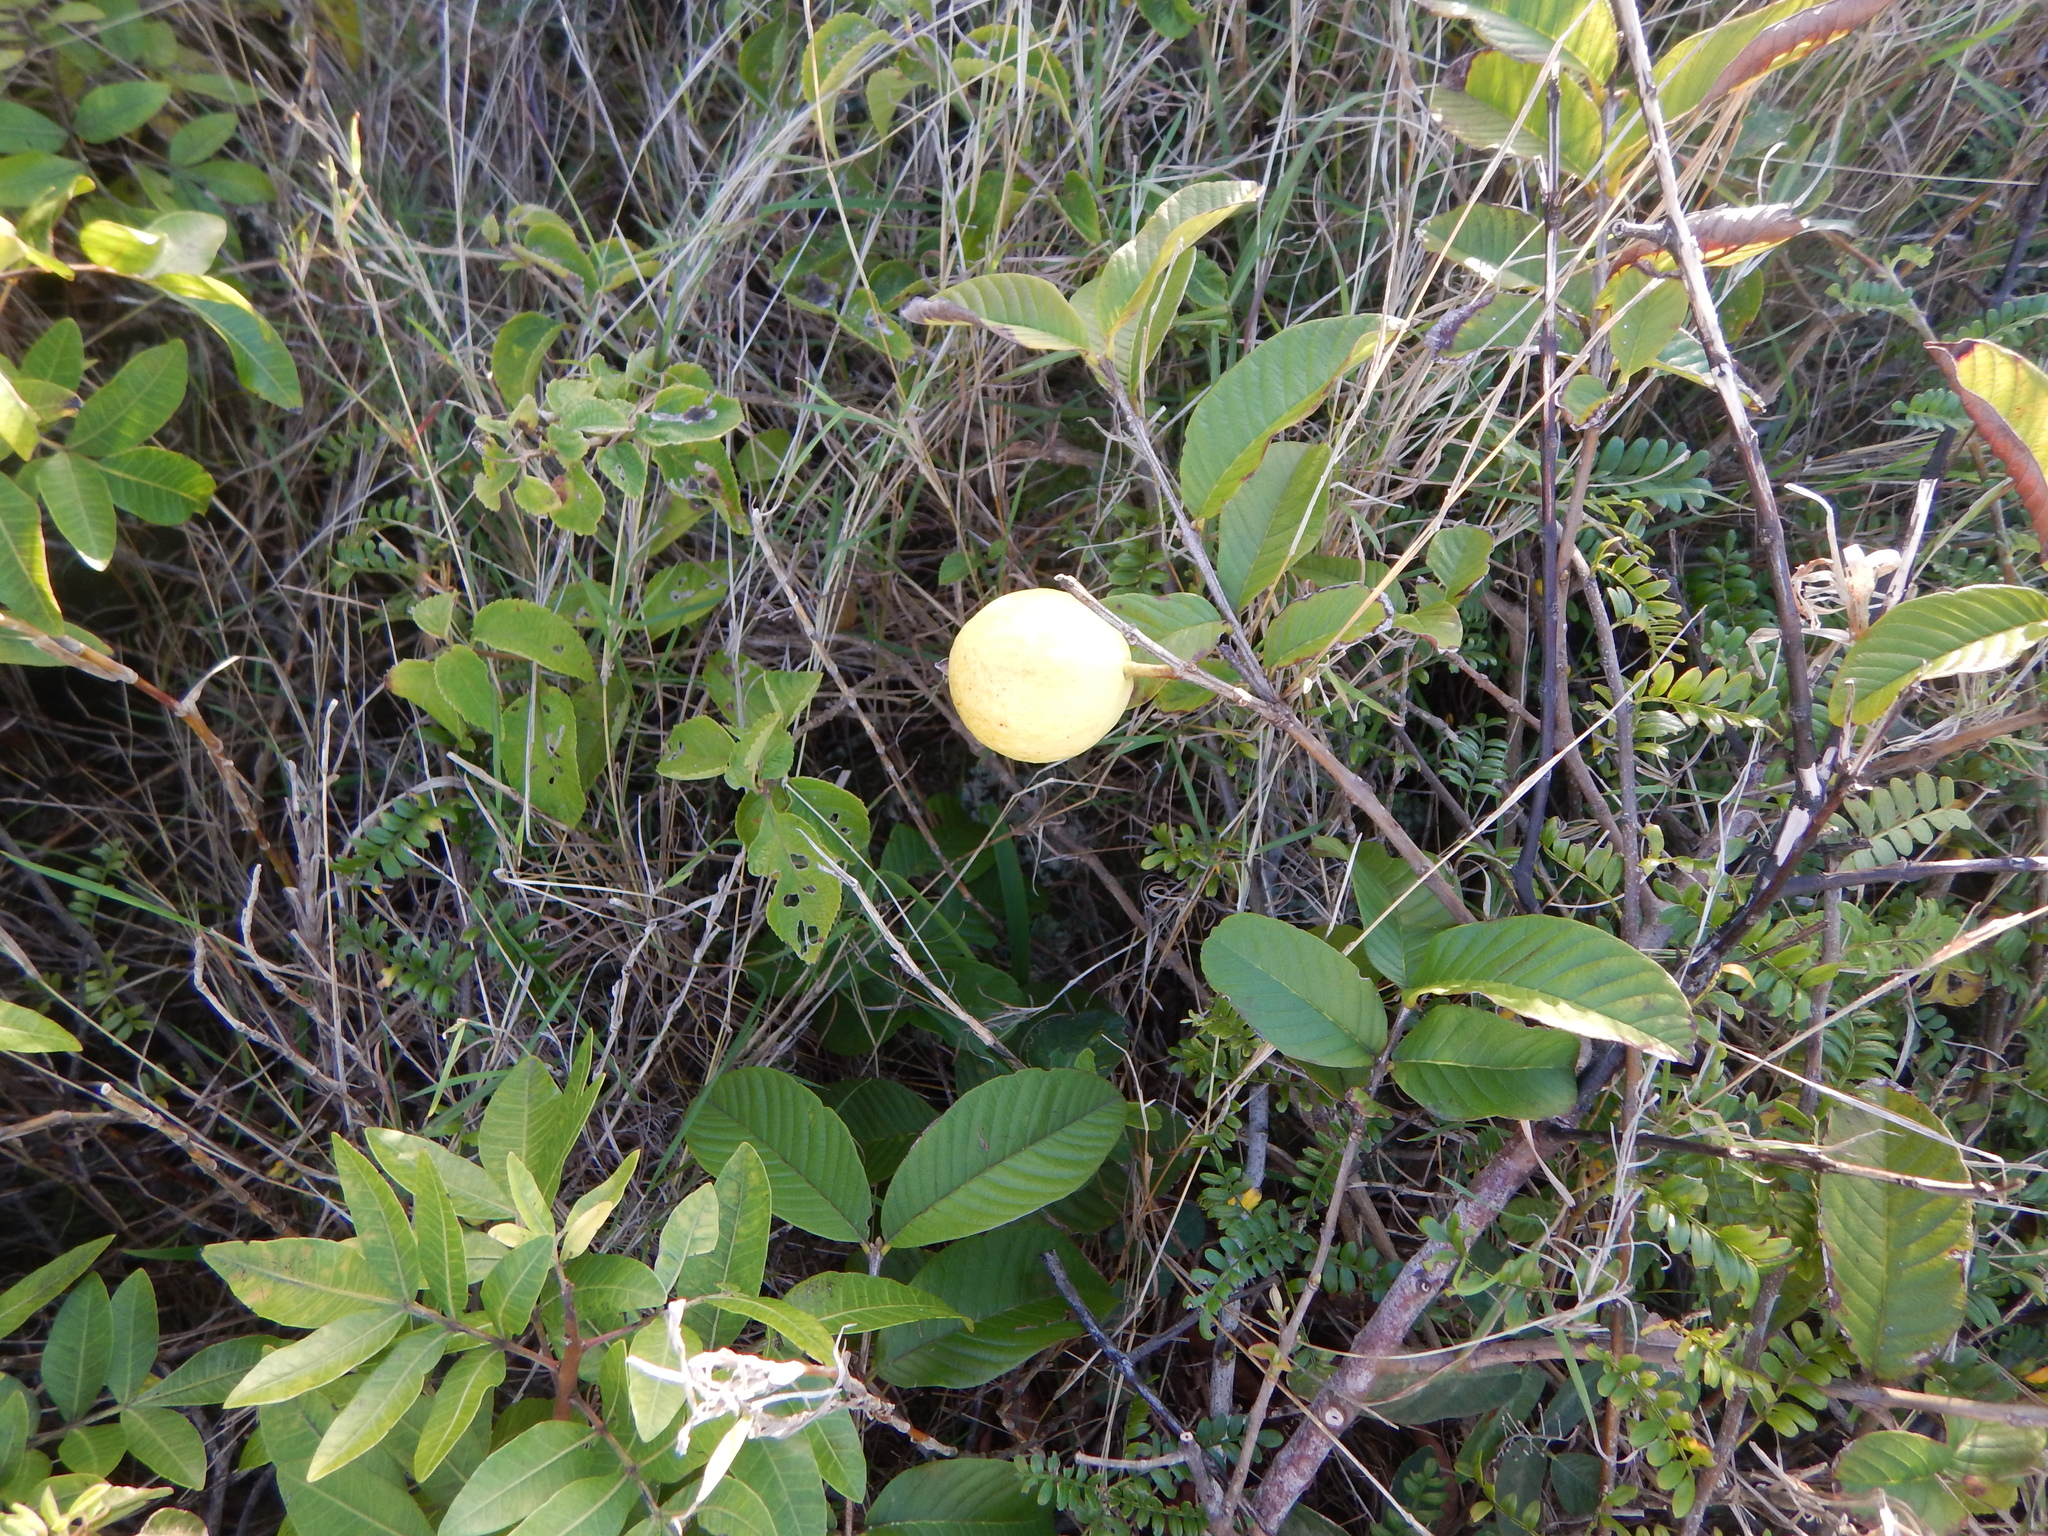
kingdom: Plantae
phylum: Tracheophyta
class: Magnoliopsida
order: Myrtales
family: Myrtaceae
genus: Psidium
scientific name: Psidium guajava
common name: Guava
